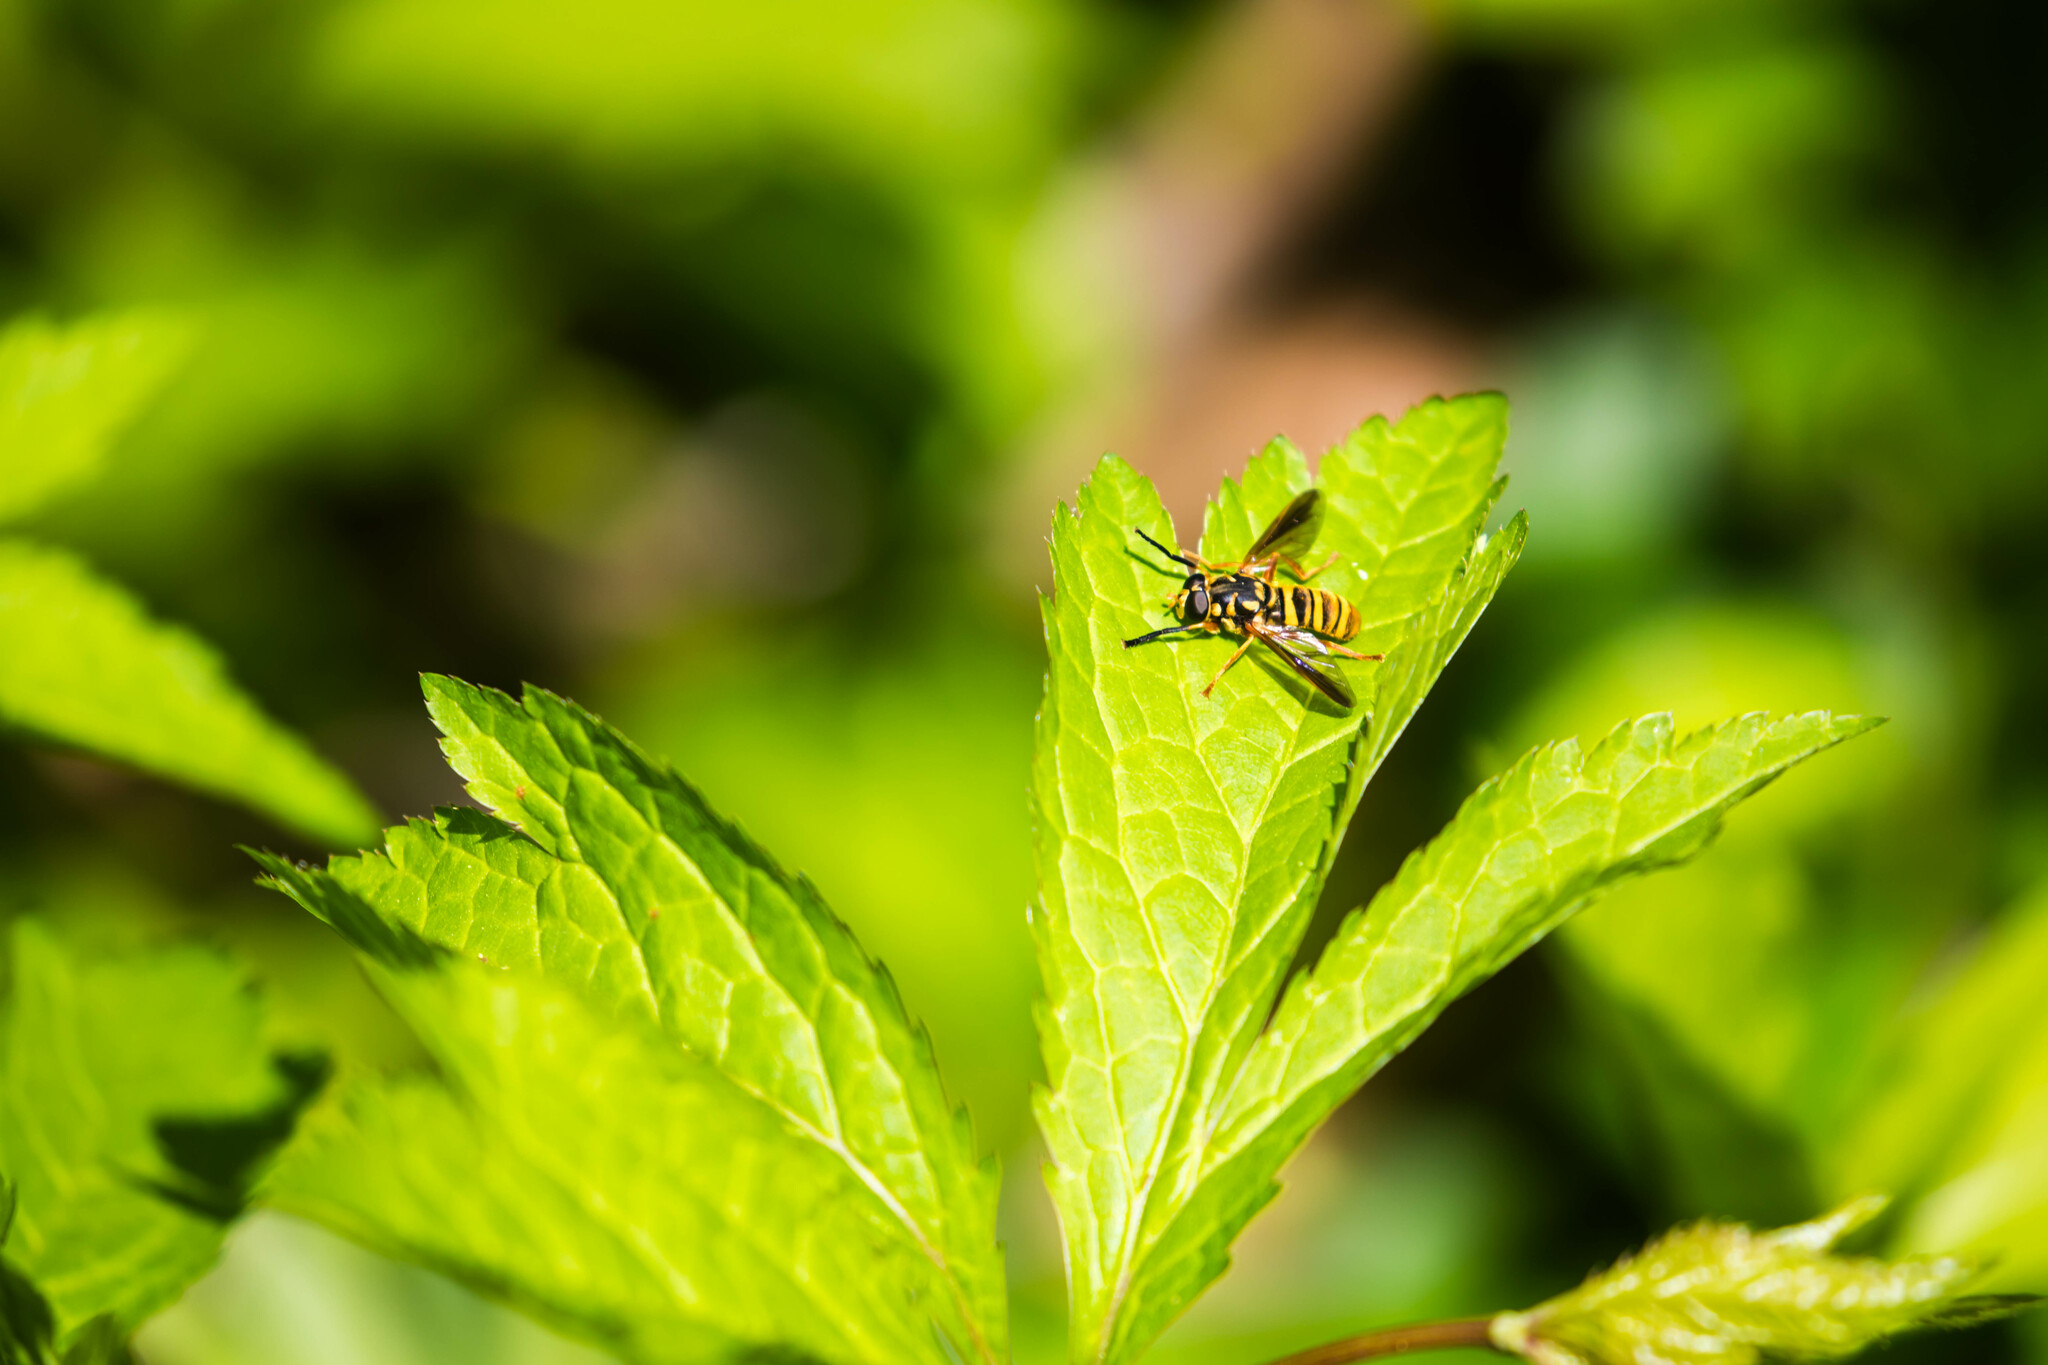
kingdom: Animalia
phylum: Arthropoda
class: Insecta
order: Diptera
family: Syrphidae
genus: Temnostoma
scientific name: Temnostoma daochum
